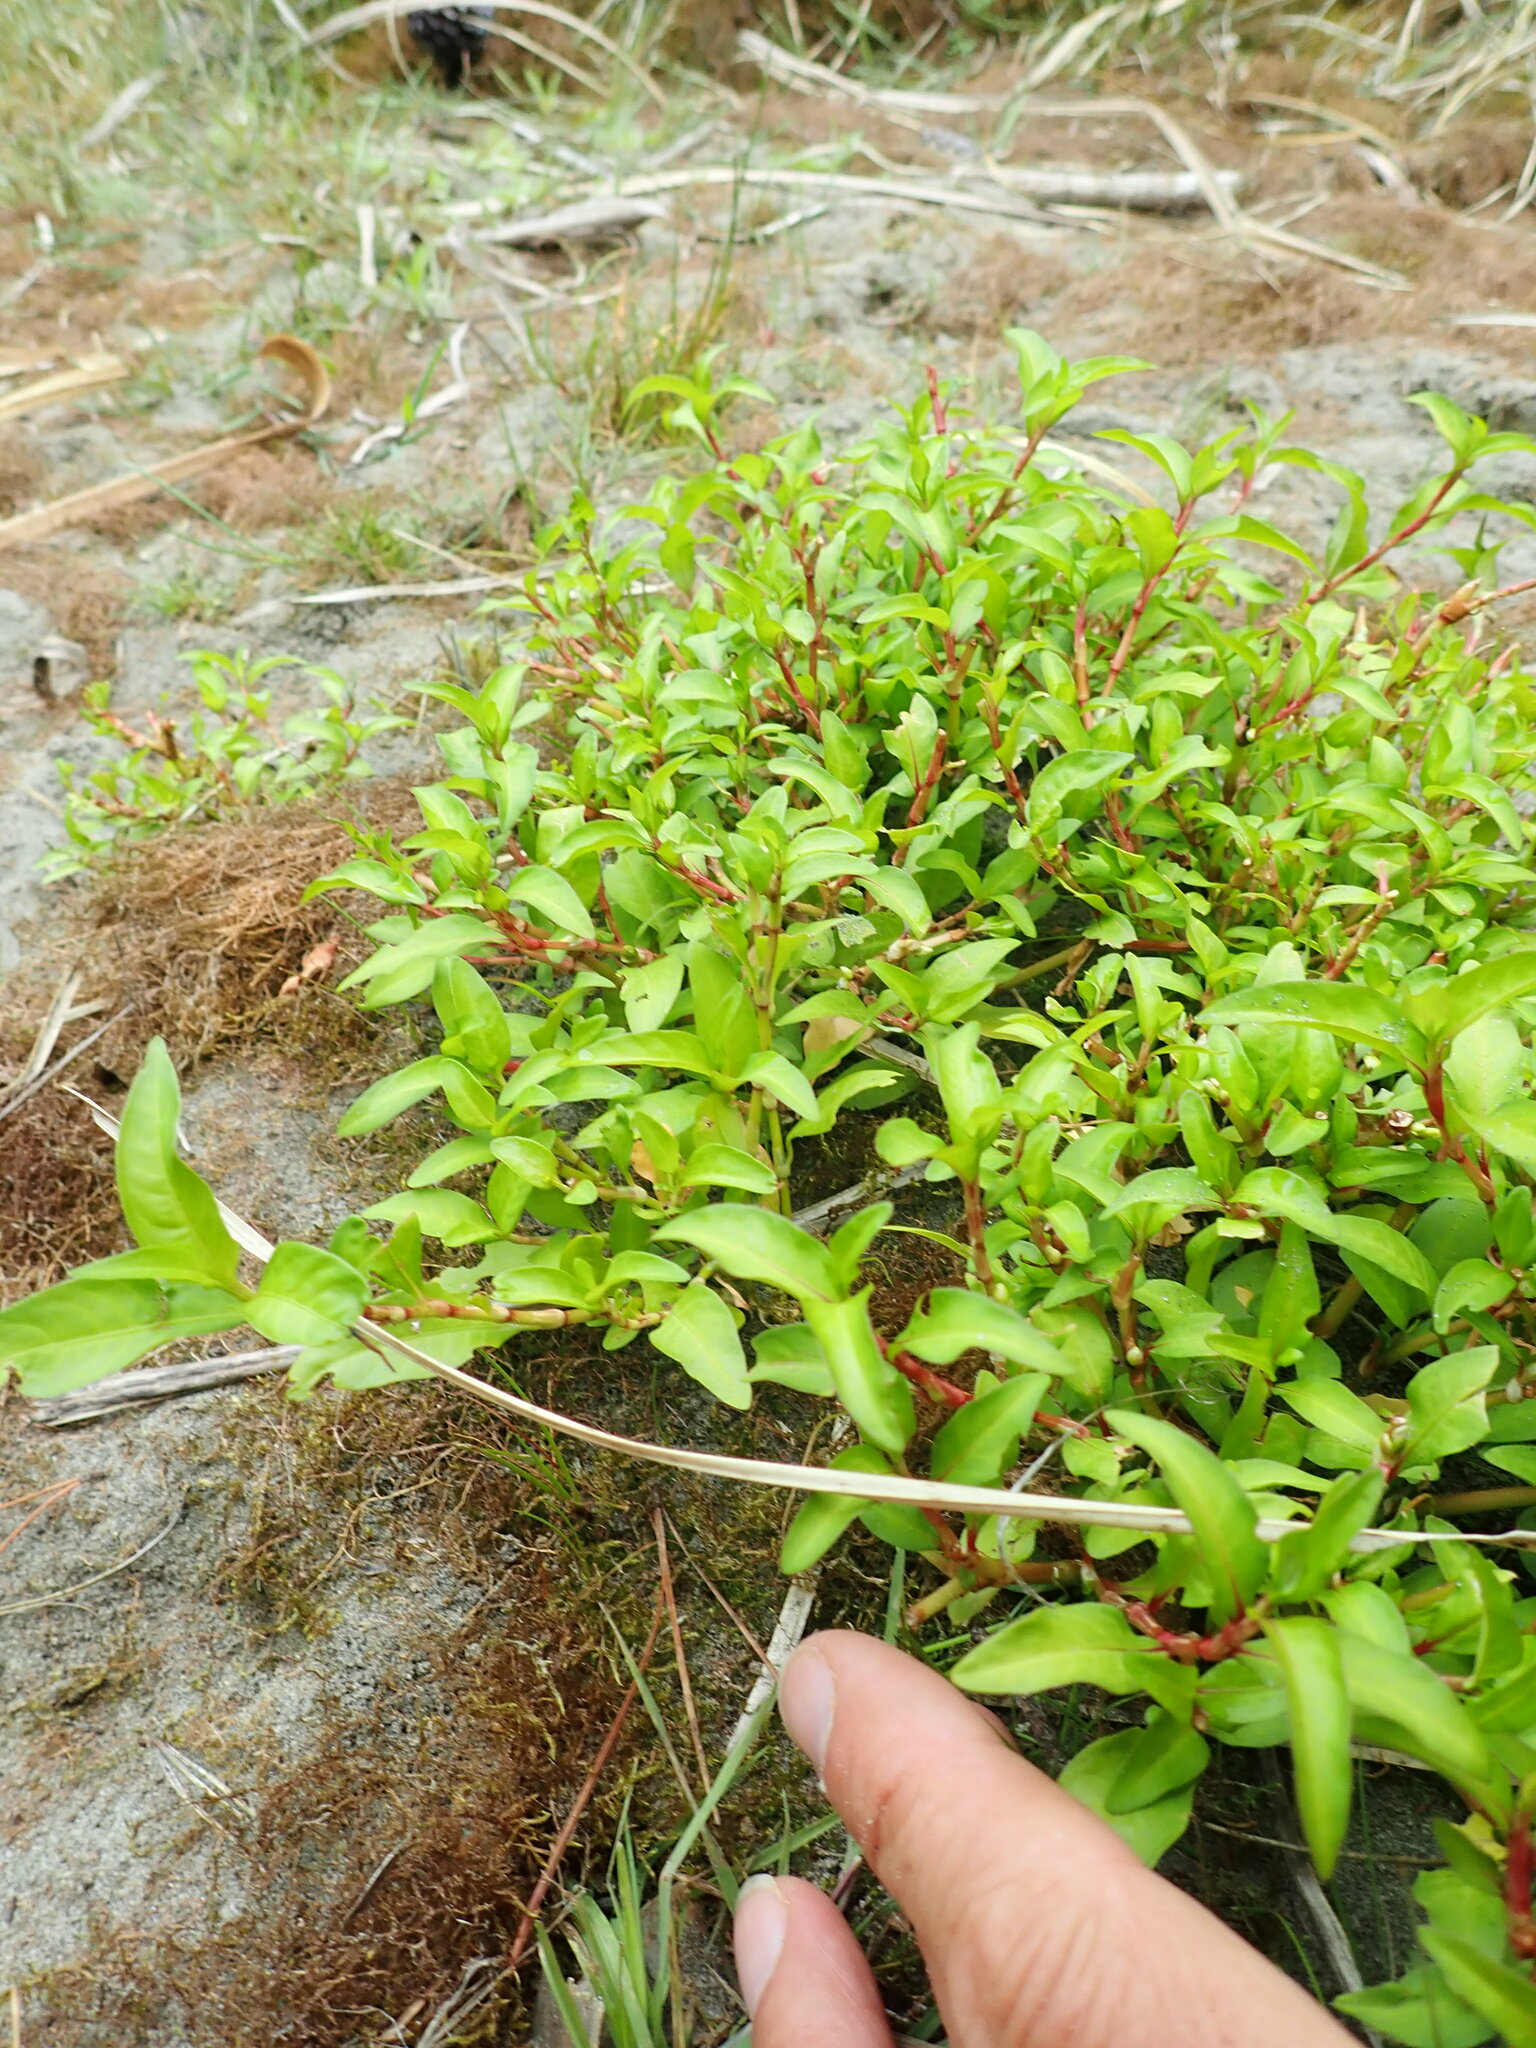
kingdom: Plantae
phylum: Tracheophyta
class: Magnoliopsida
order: Caryophyllales
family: Polygonaceae
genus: Persicaria
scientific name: Persicaria hydropiper
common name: Water-pepper
